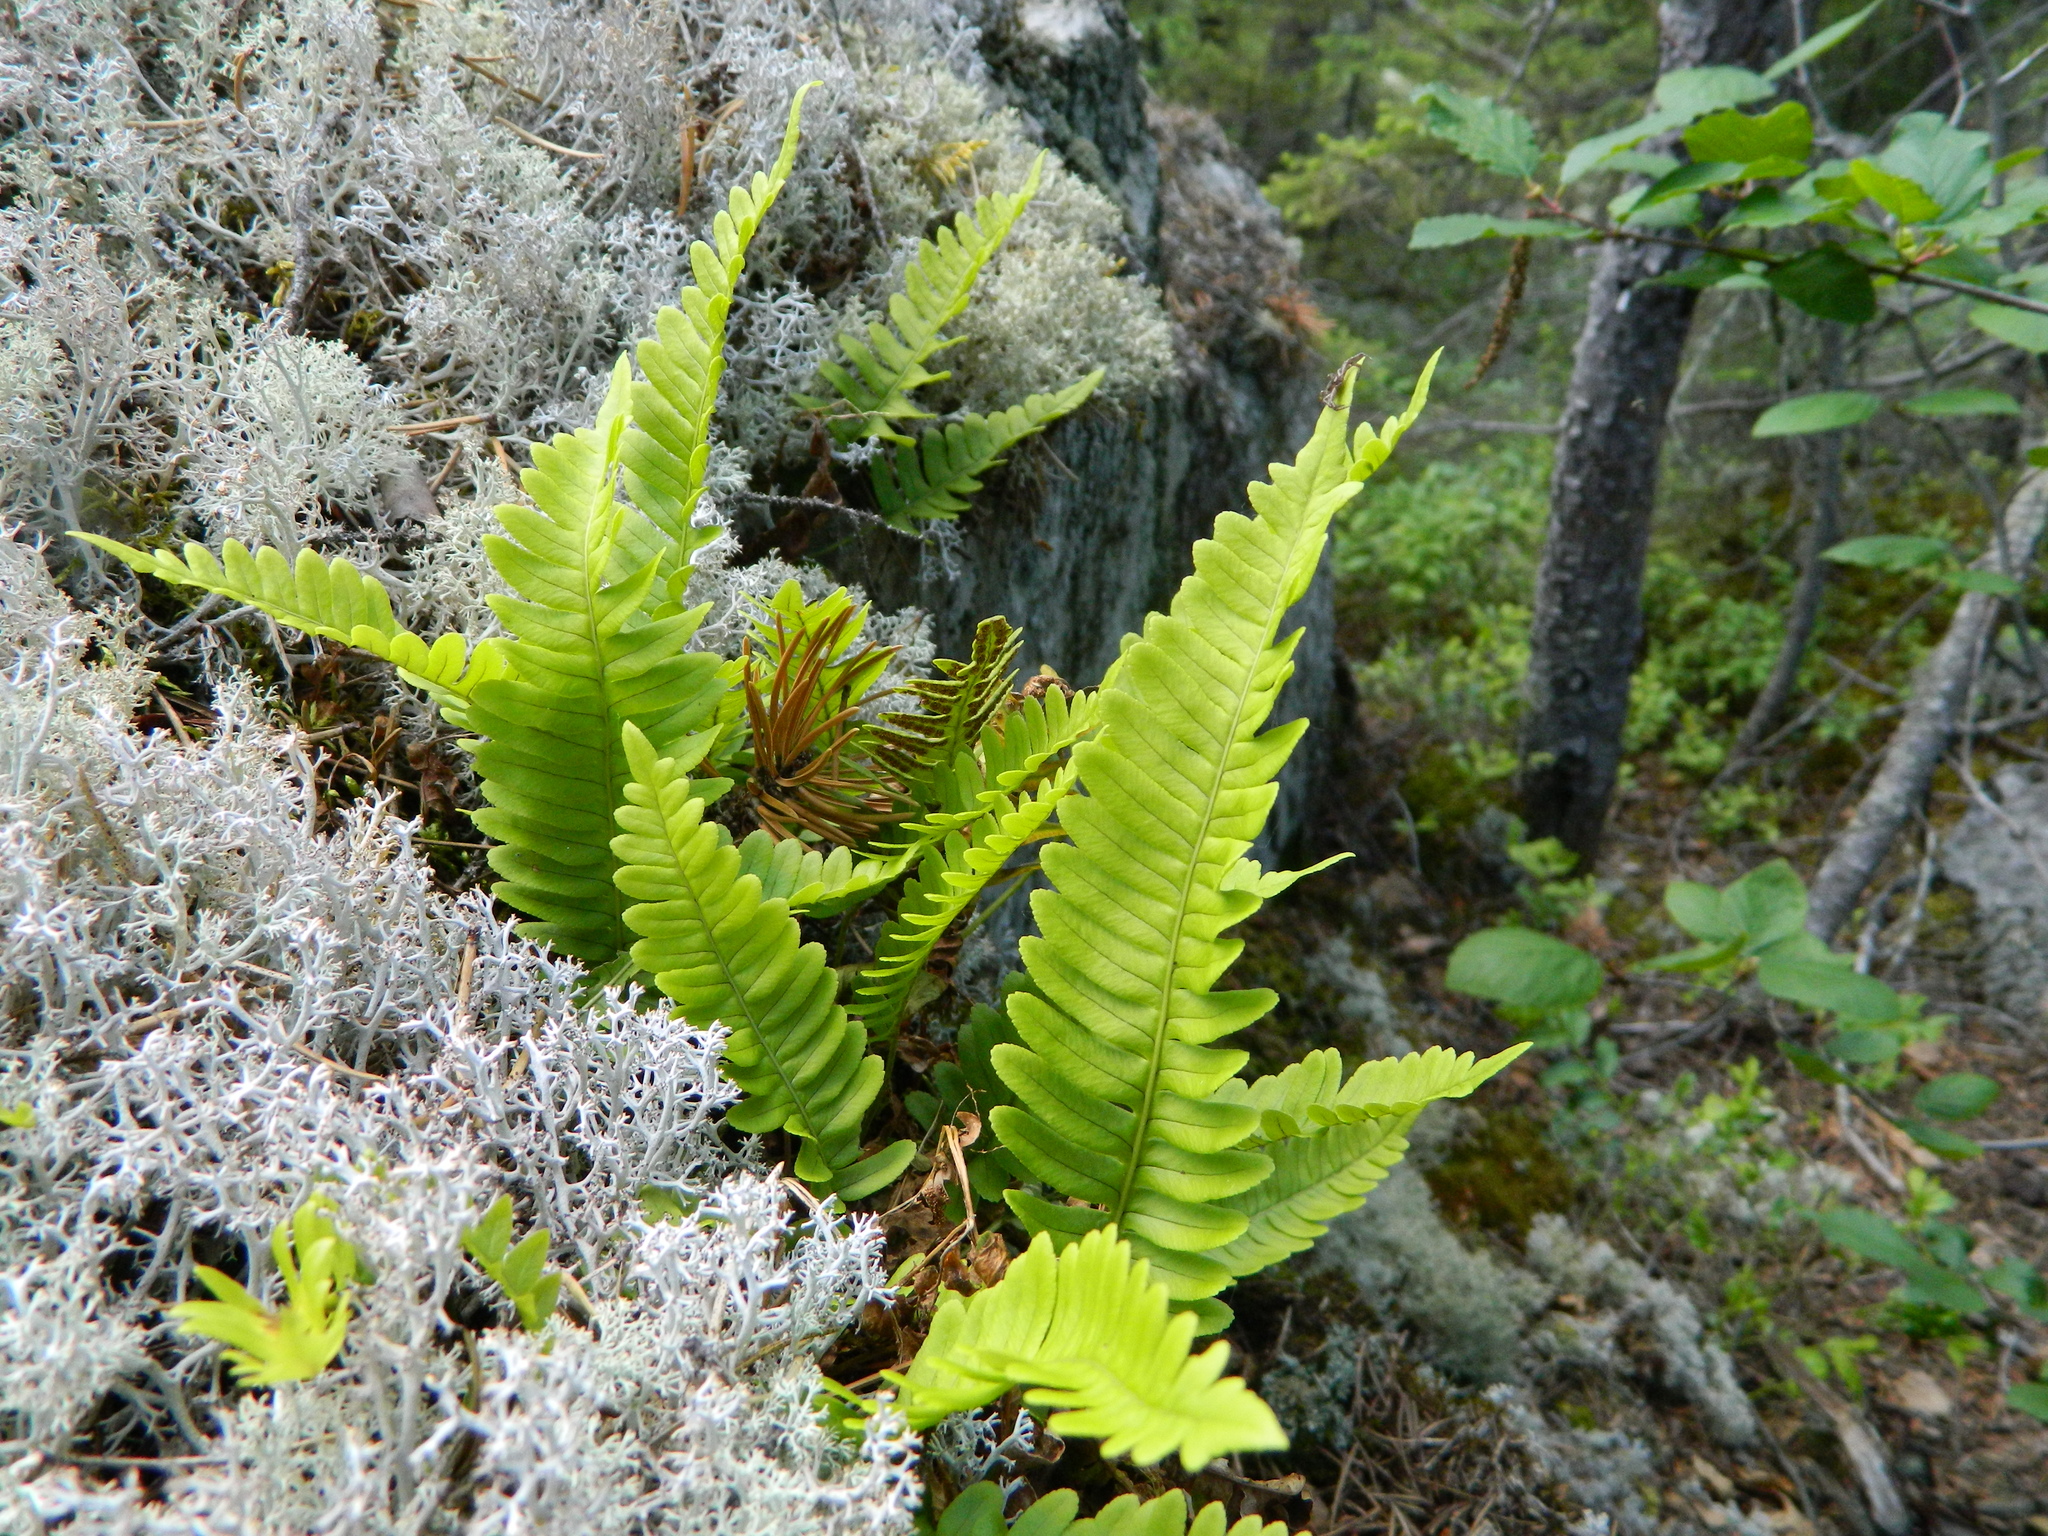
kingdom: Plantae
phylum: Tracheophyta
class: Polypodiopsida
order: Polypodiales
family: Polypodiaceae
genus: Polypodium
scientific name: Polypodium virginianum
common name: American wall fern
